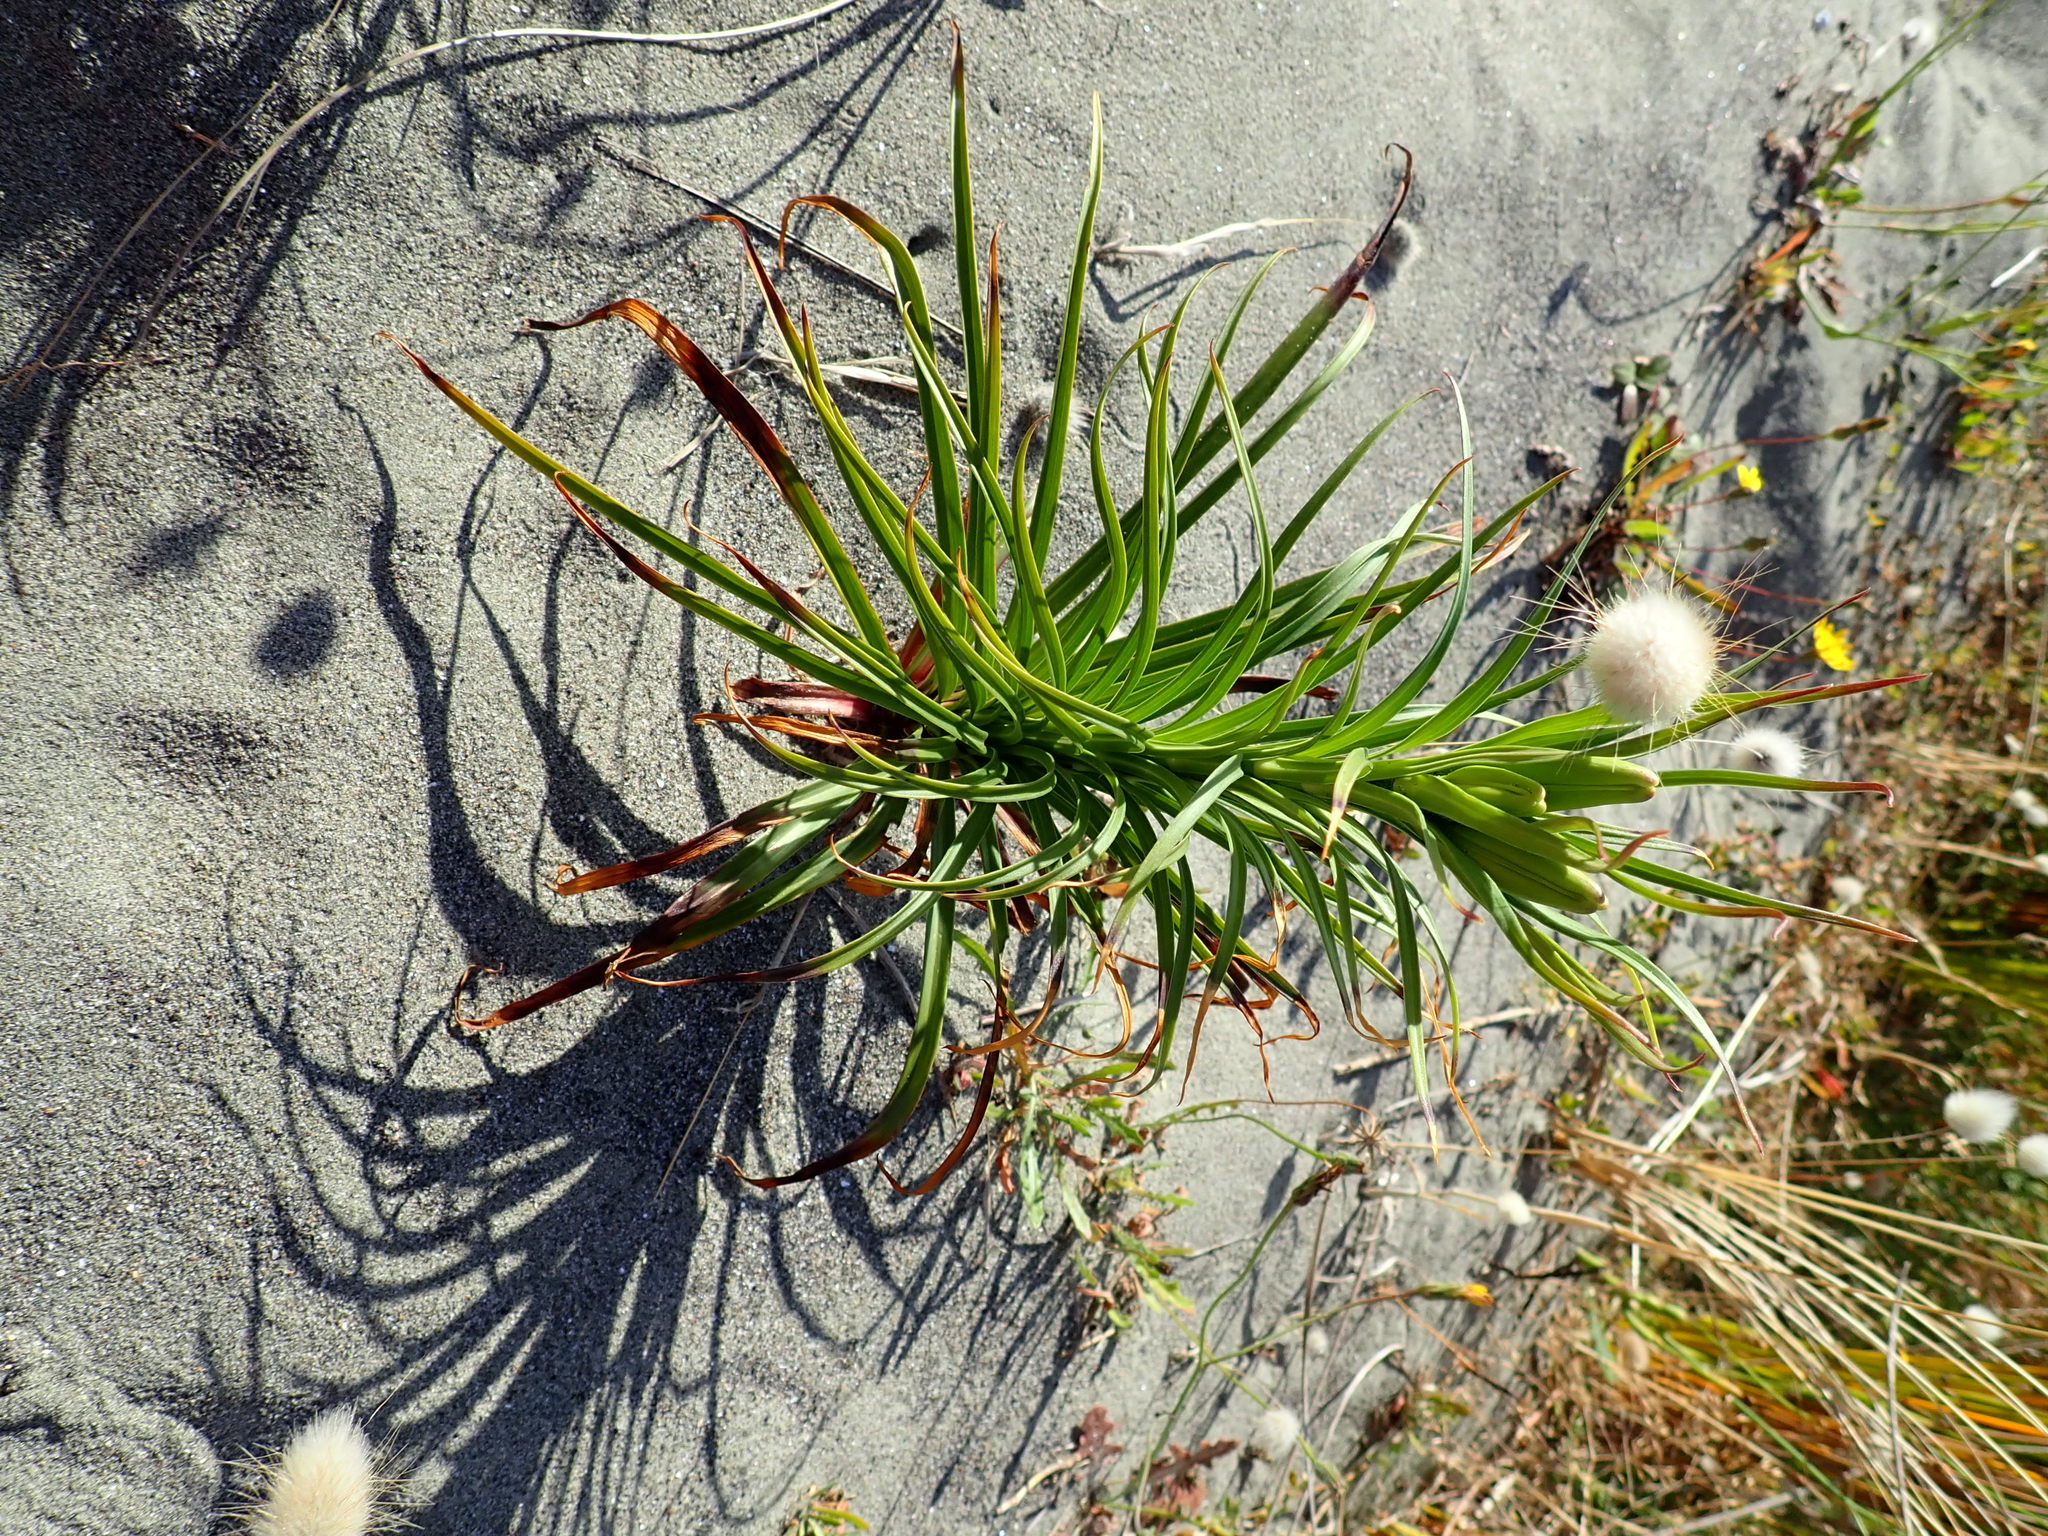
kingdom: Plantae
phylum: Tracheophyta
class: Liliopsida
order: Liliales
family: Liliaceae
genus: Lilium
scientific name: Lilium formosanum
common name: Formosa lily
